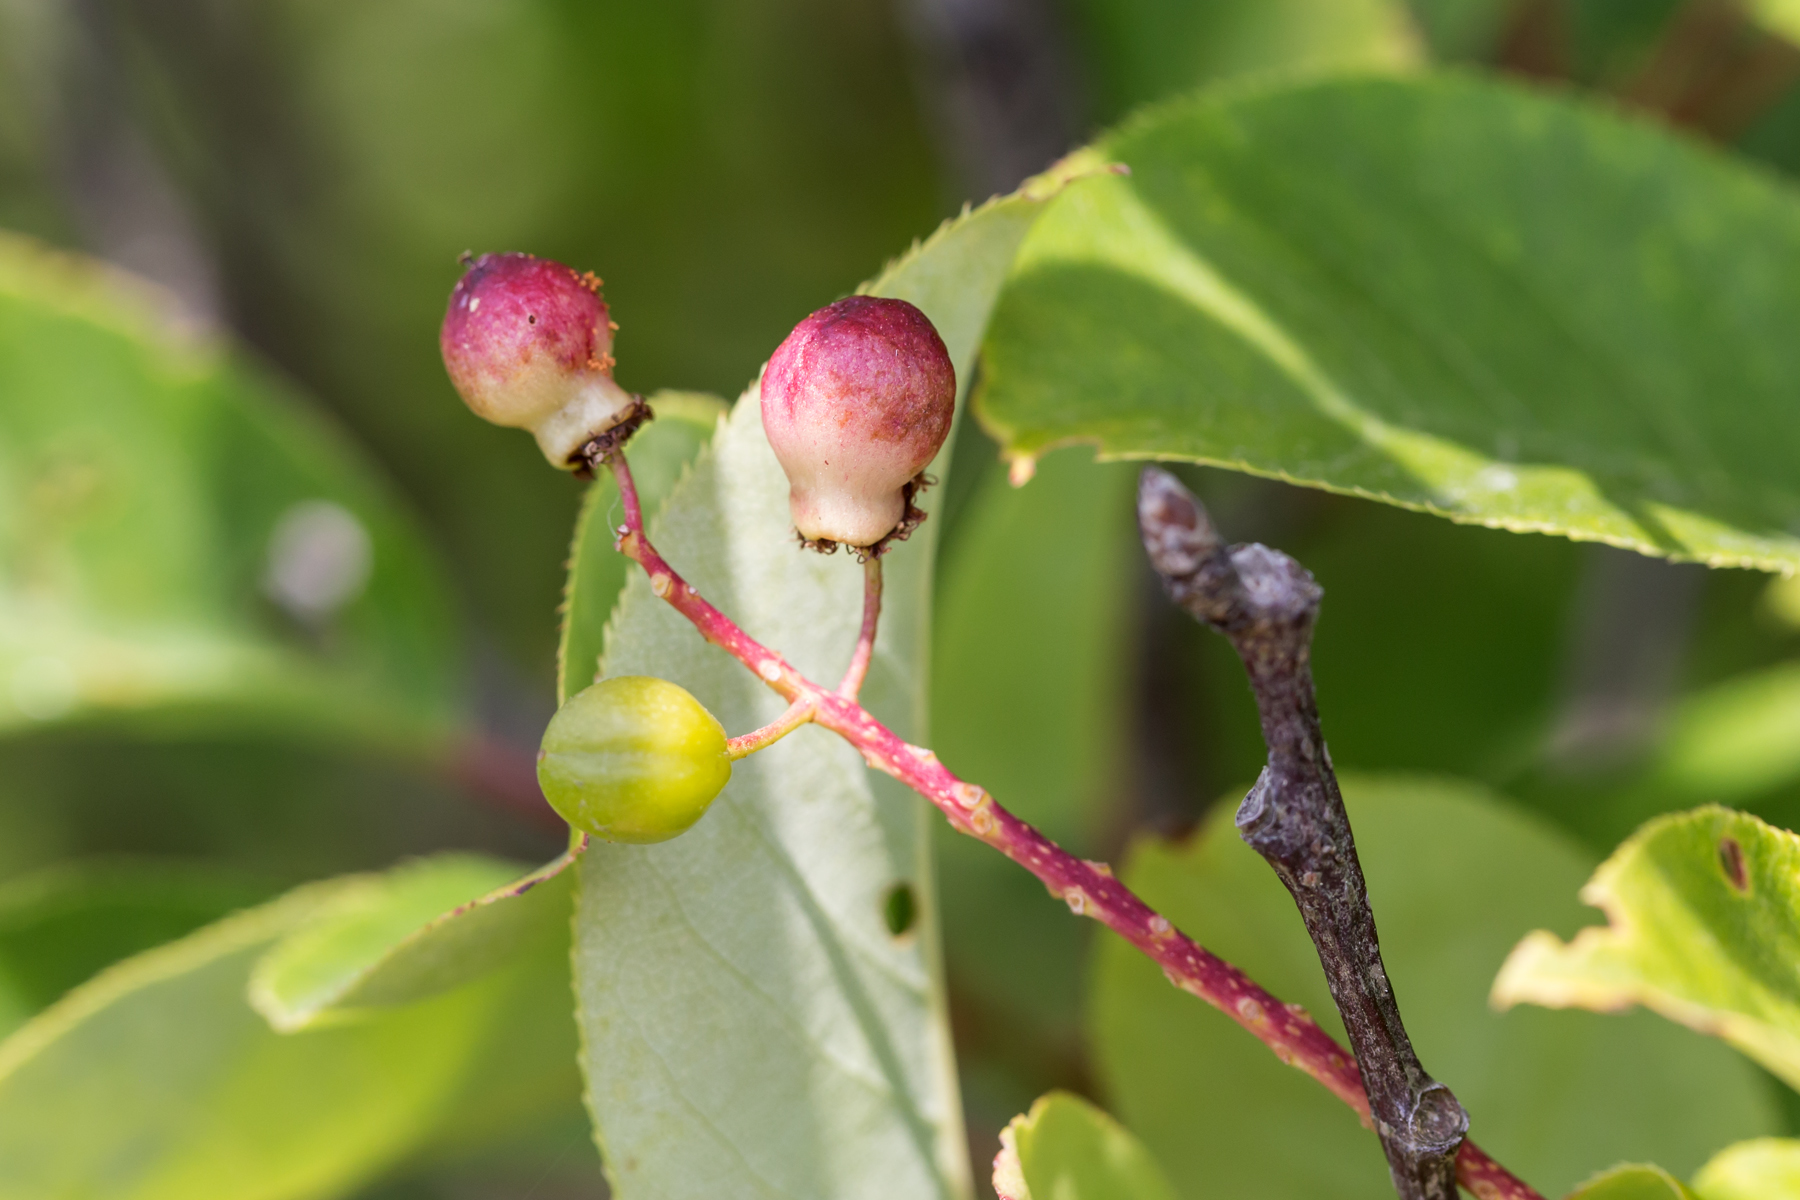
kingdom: Plantae
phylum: Tracheophyta
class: Magnoliopsida
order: Rosales
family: Rosaceae
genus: Prunus
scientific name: Prunus virginiana
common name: Chokecherry
